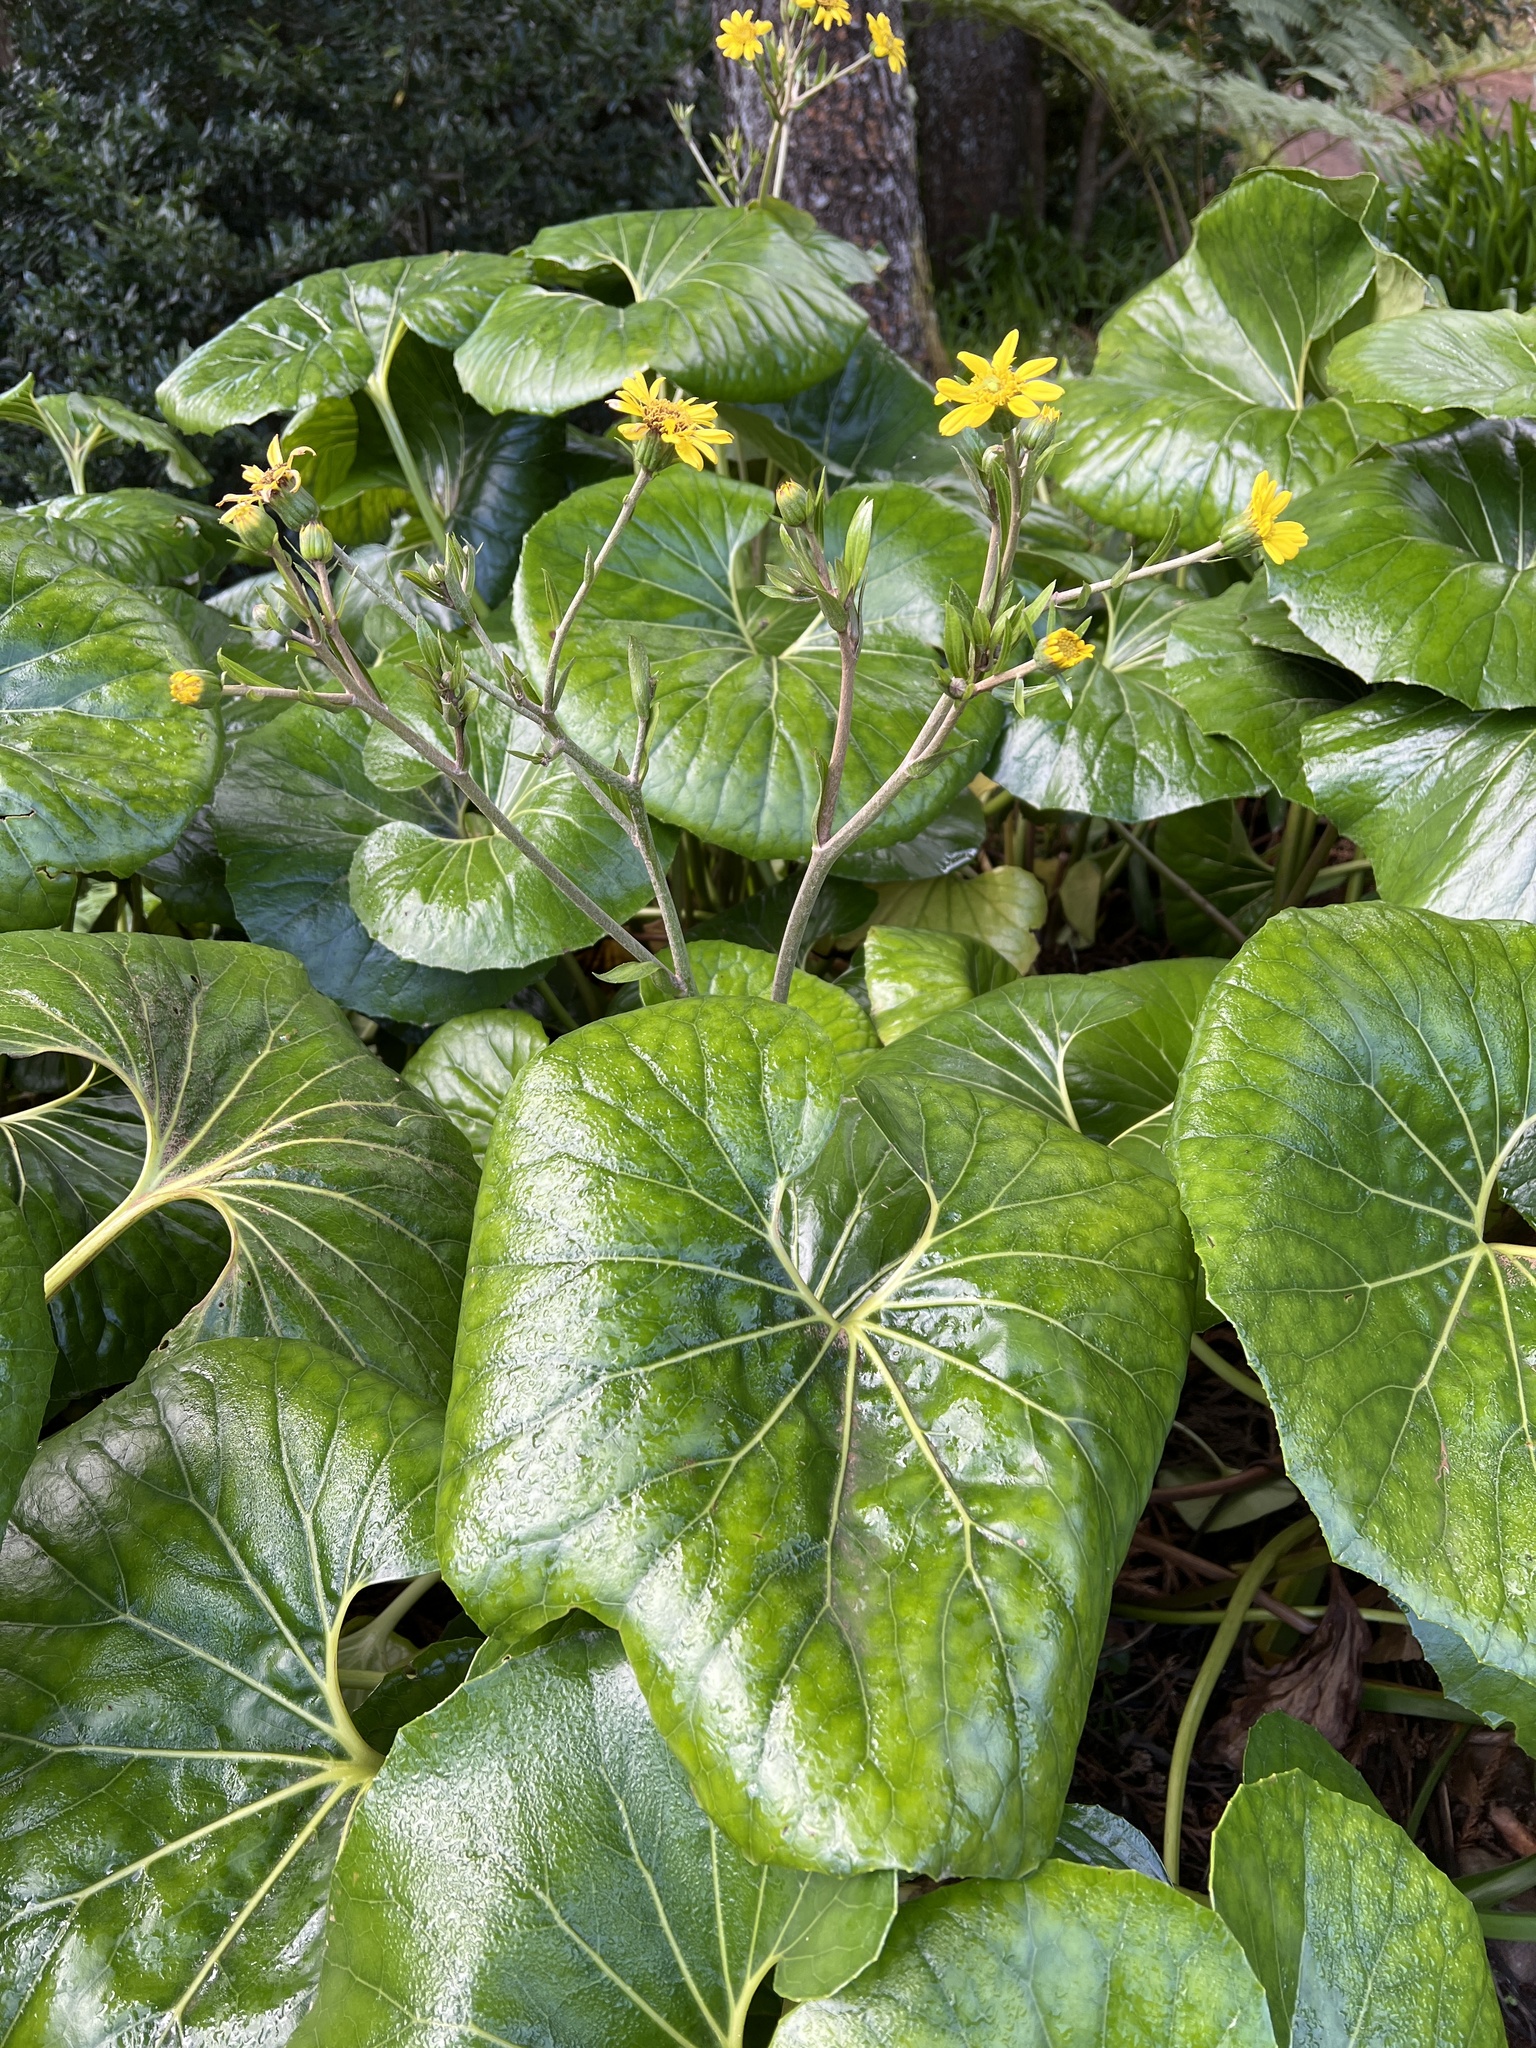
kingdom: Plantae
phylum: Tracheophyta
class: Magnoliopsida
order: Asterales
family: Asteraceae
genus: Farfugium
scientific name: Farfugium japonicum
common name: Leopardplant
